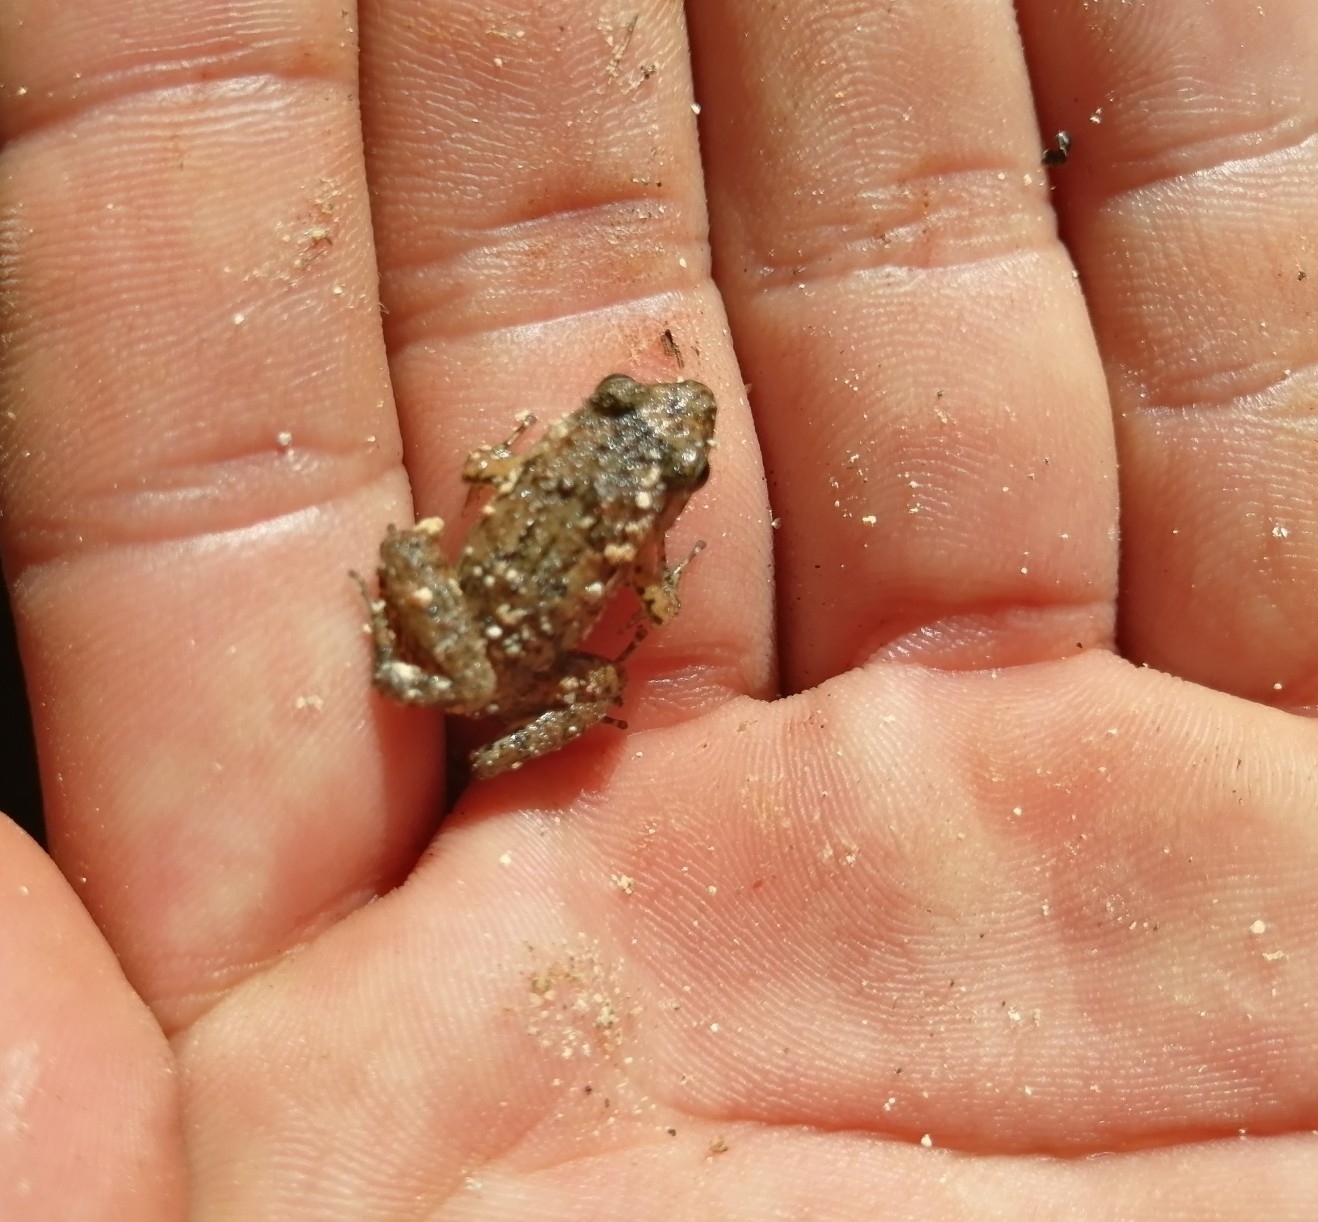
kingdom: Animalia
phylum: Chordata
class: Amphibia
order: Anura
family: Eleutherodactylidae
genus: Eleutherodactylus
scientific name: Eleutherodactylus planirostris
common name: Greenhouse frog
